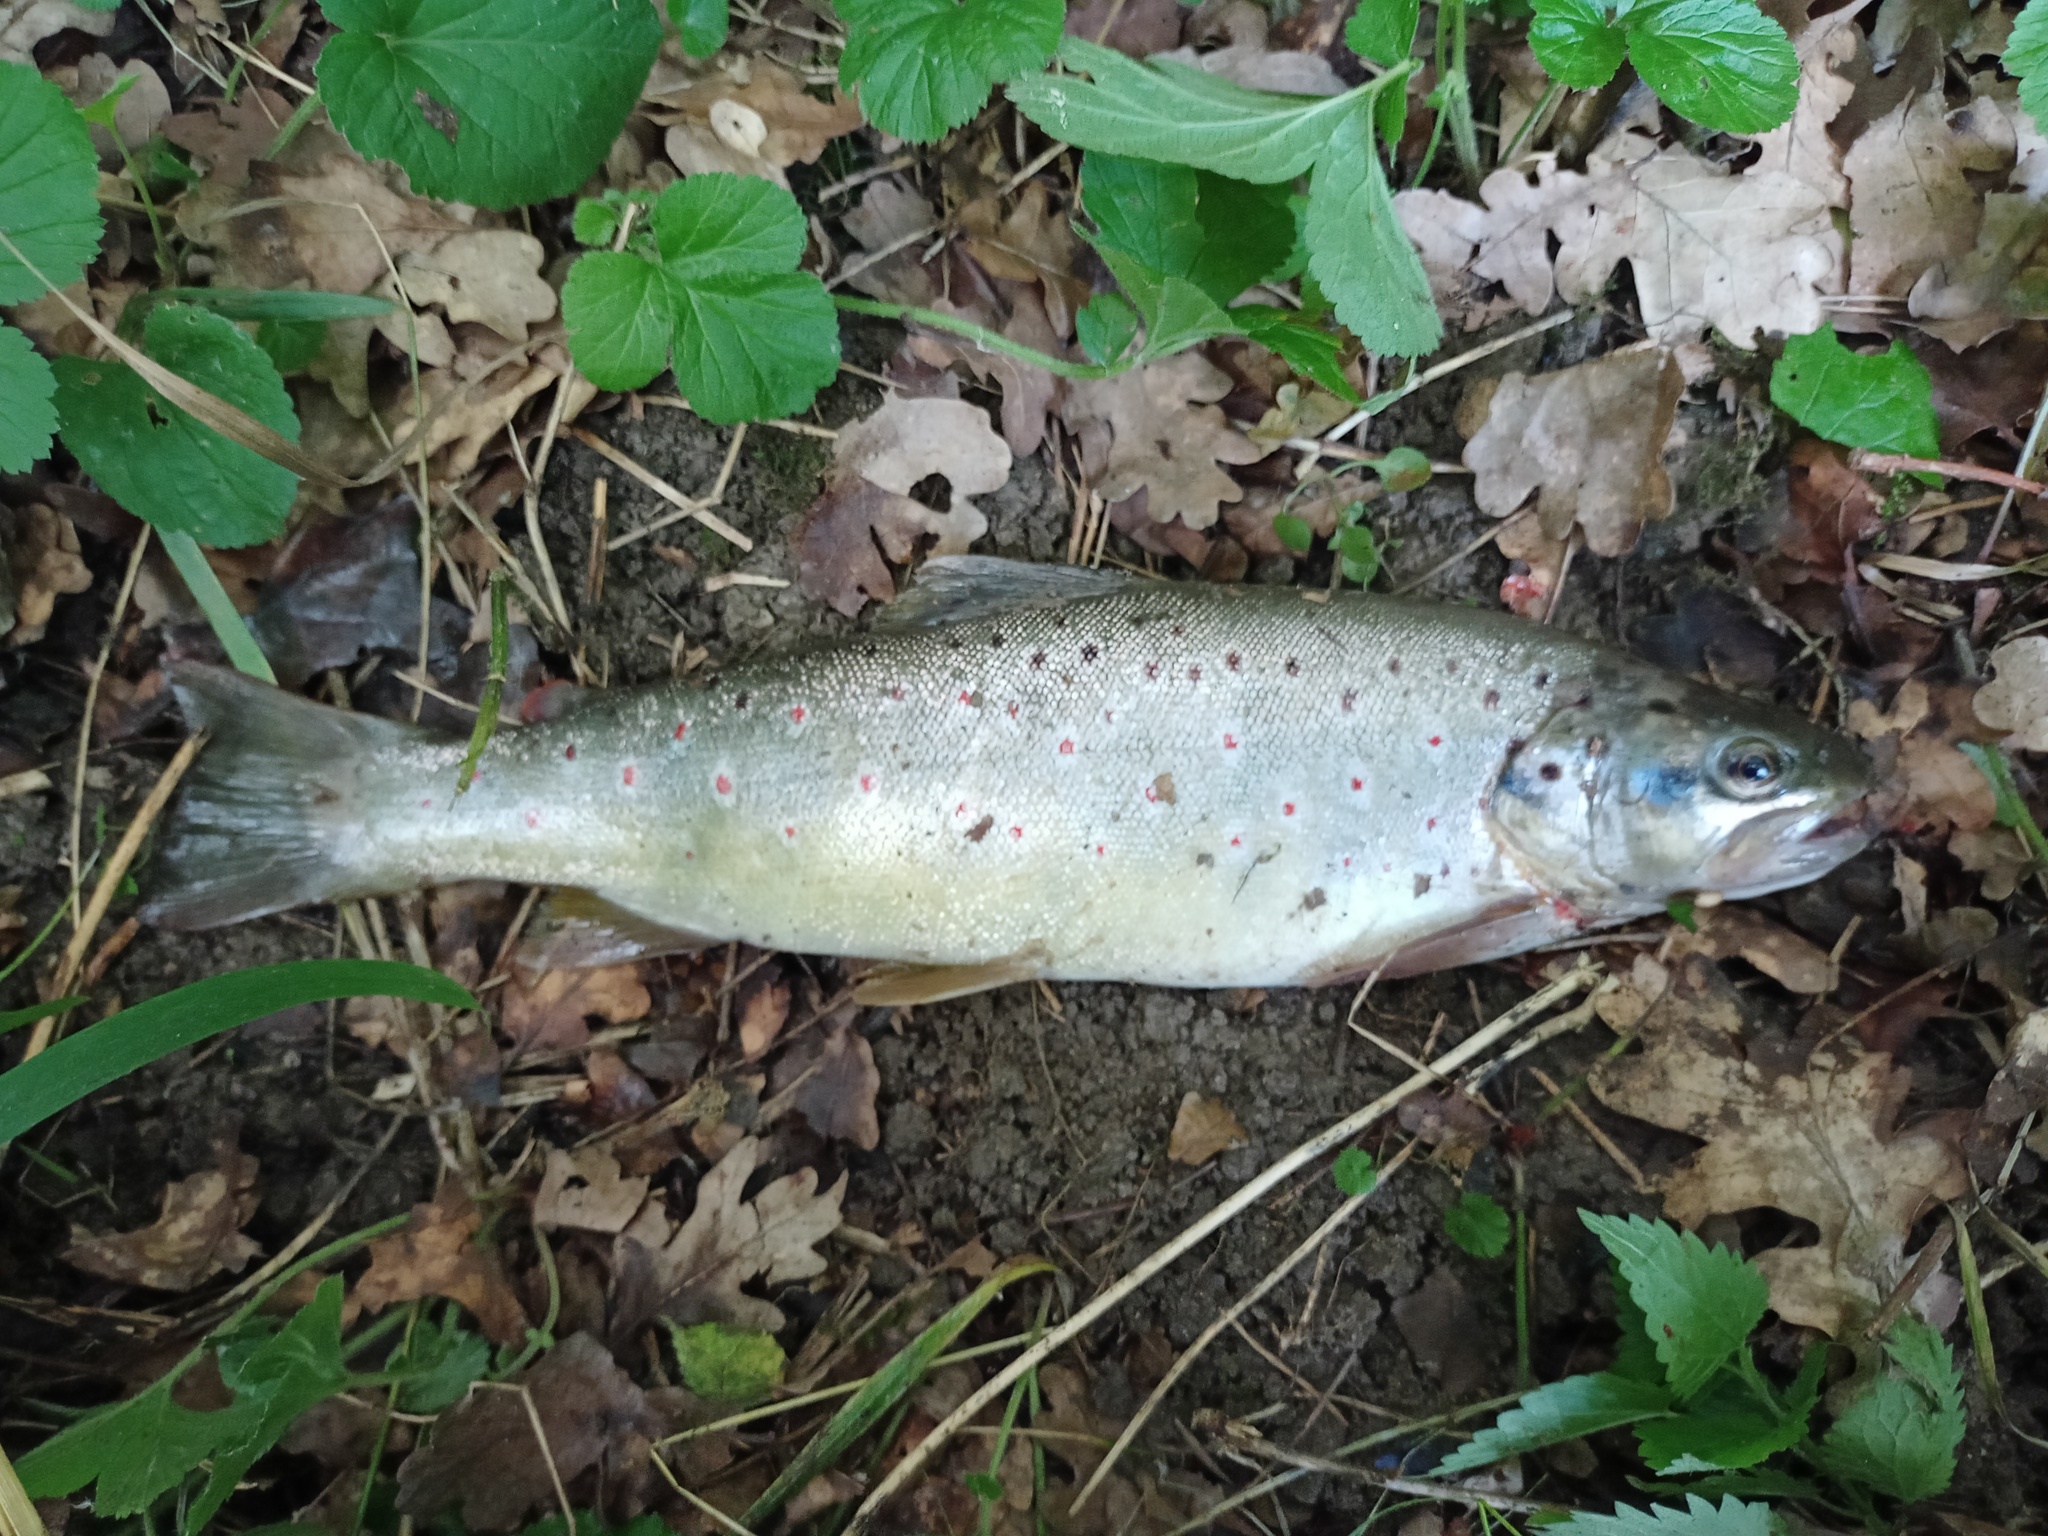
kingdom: Animalia
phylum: Chordata
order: Salmoniformes
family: Salmonidae
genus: Salmo
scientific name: Salmo trutta
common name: Brown trout
